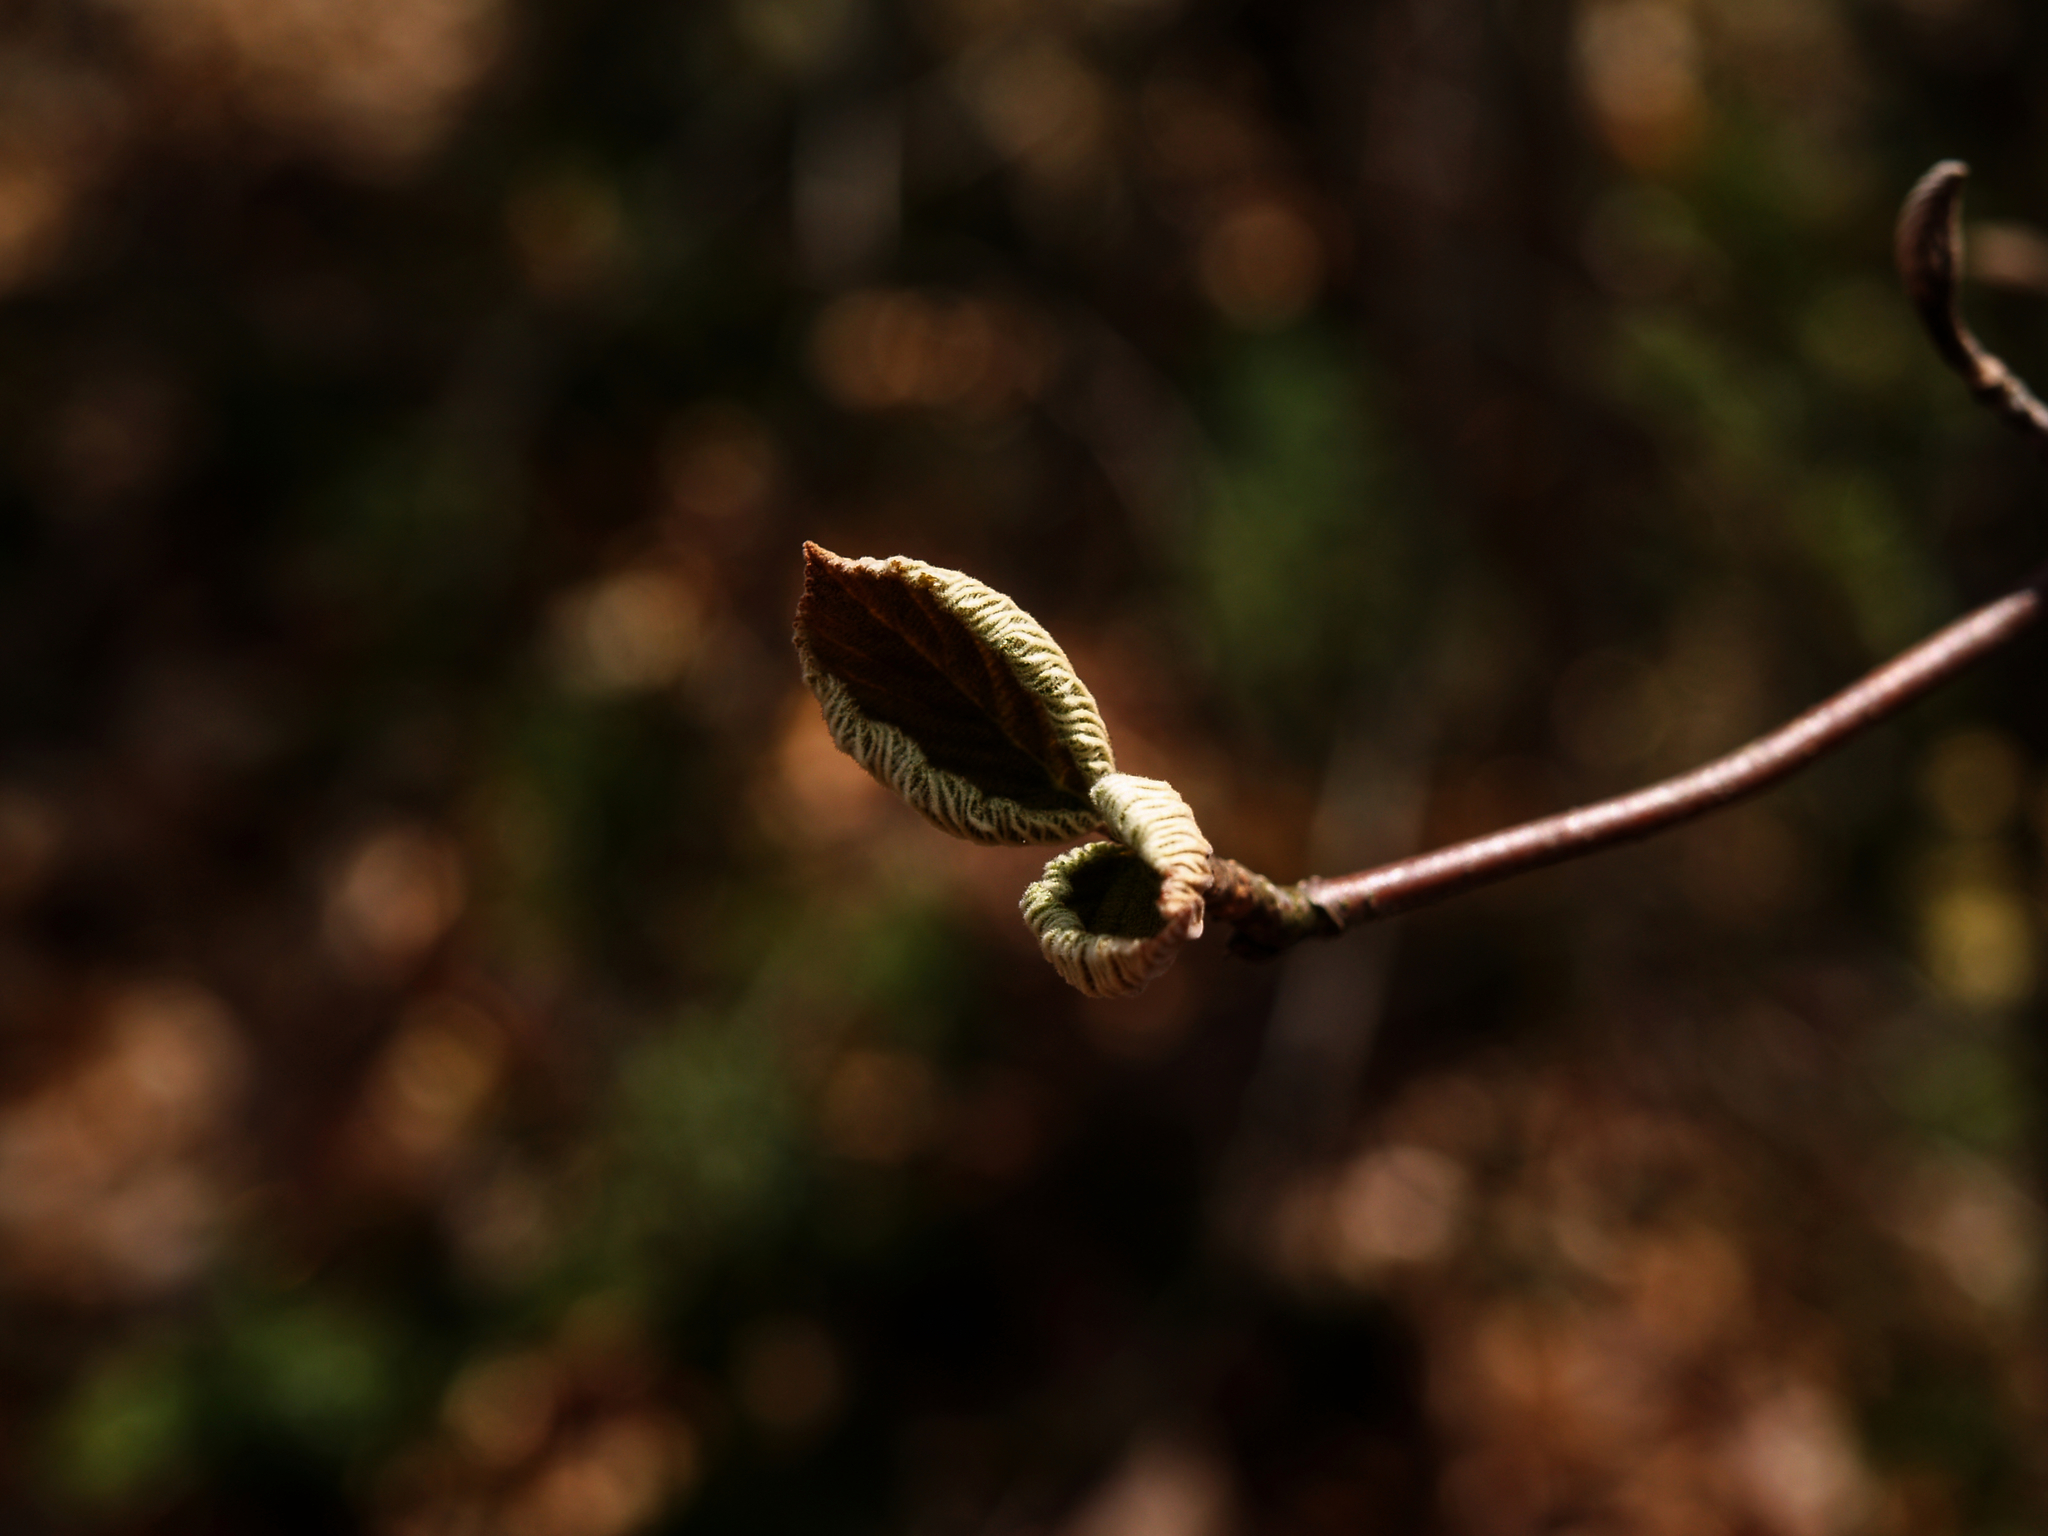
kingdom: Plantae
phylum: Tracheophyta
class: Magnoliopsida
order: Dipsacales
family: Viburnaceae
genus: Viburnum
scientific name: Viburnum lantanoides
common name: Hobblebush
